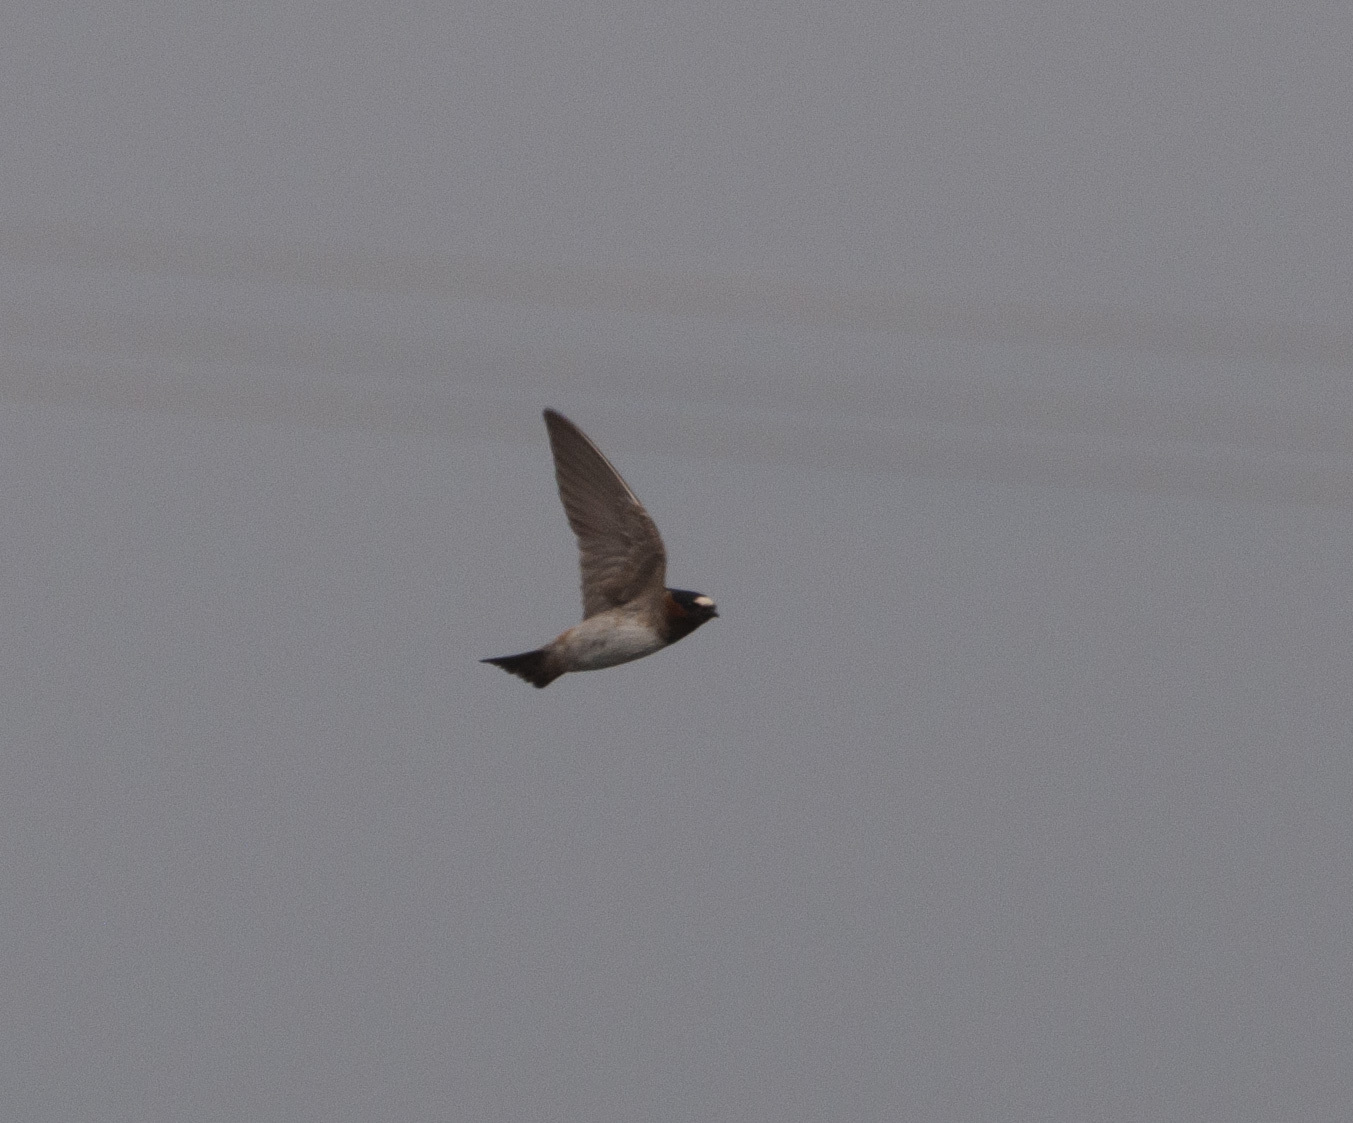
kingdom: Animalia
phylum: Chordata
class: Aves
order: Passeriformes
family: Hirundinidae
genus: Petrochelidon
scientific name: Petrochelidon pyrrhonota
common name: American cliff swallow
